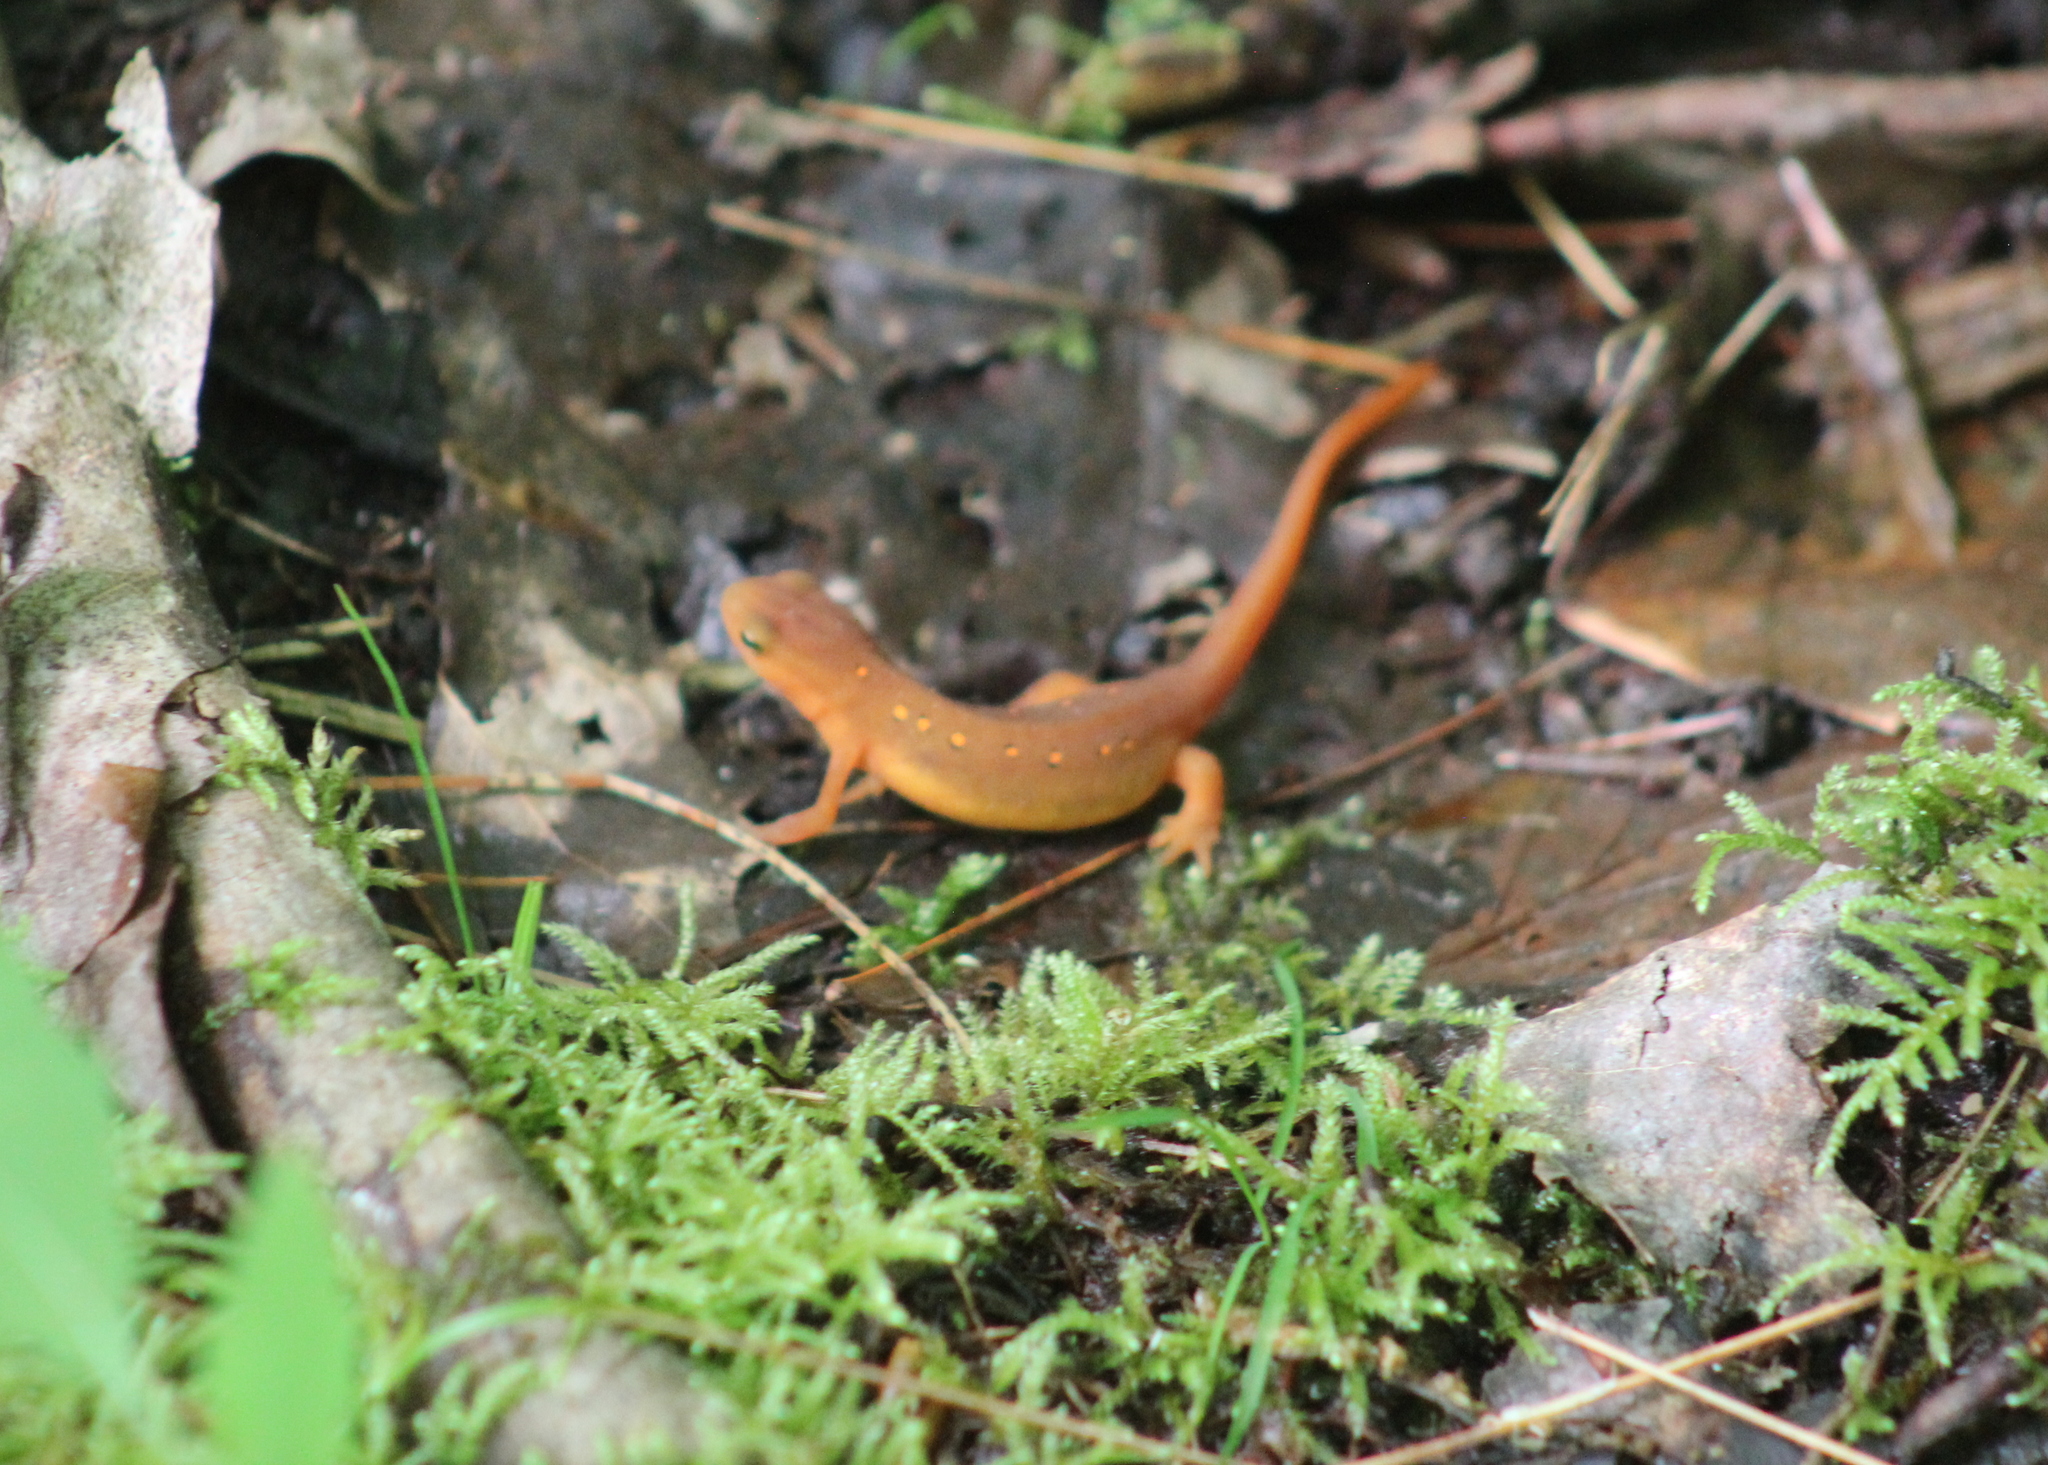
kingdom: Animalia
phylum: Chordata
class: Amphibia
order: Caudata
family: Salamandridae
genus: Notophthalmus
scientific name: Notophthalmus viridescens
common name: Eastern newt
